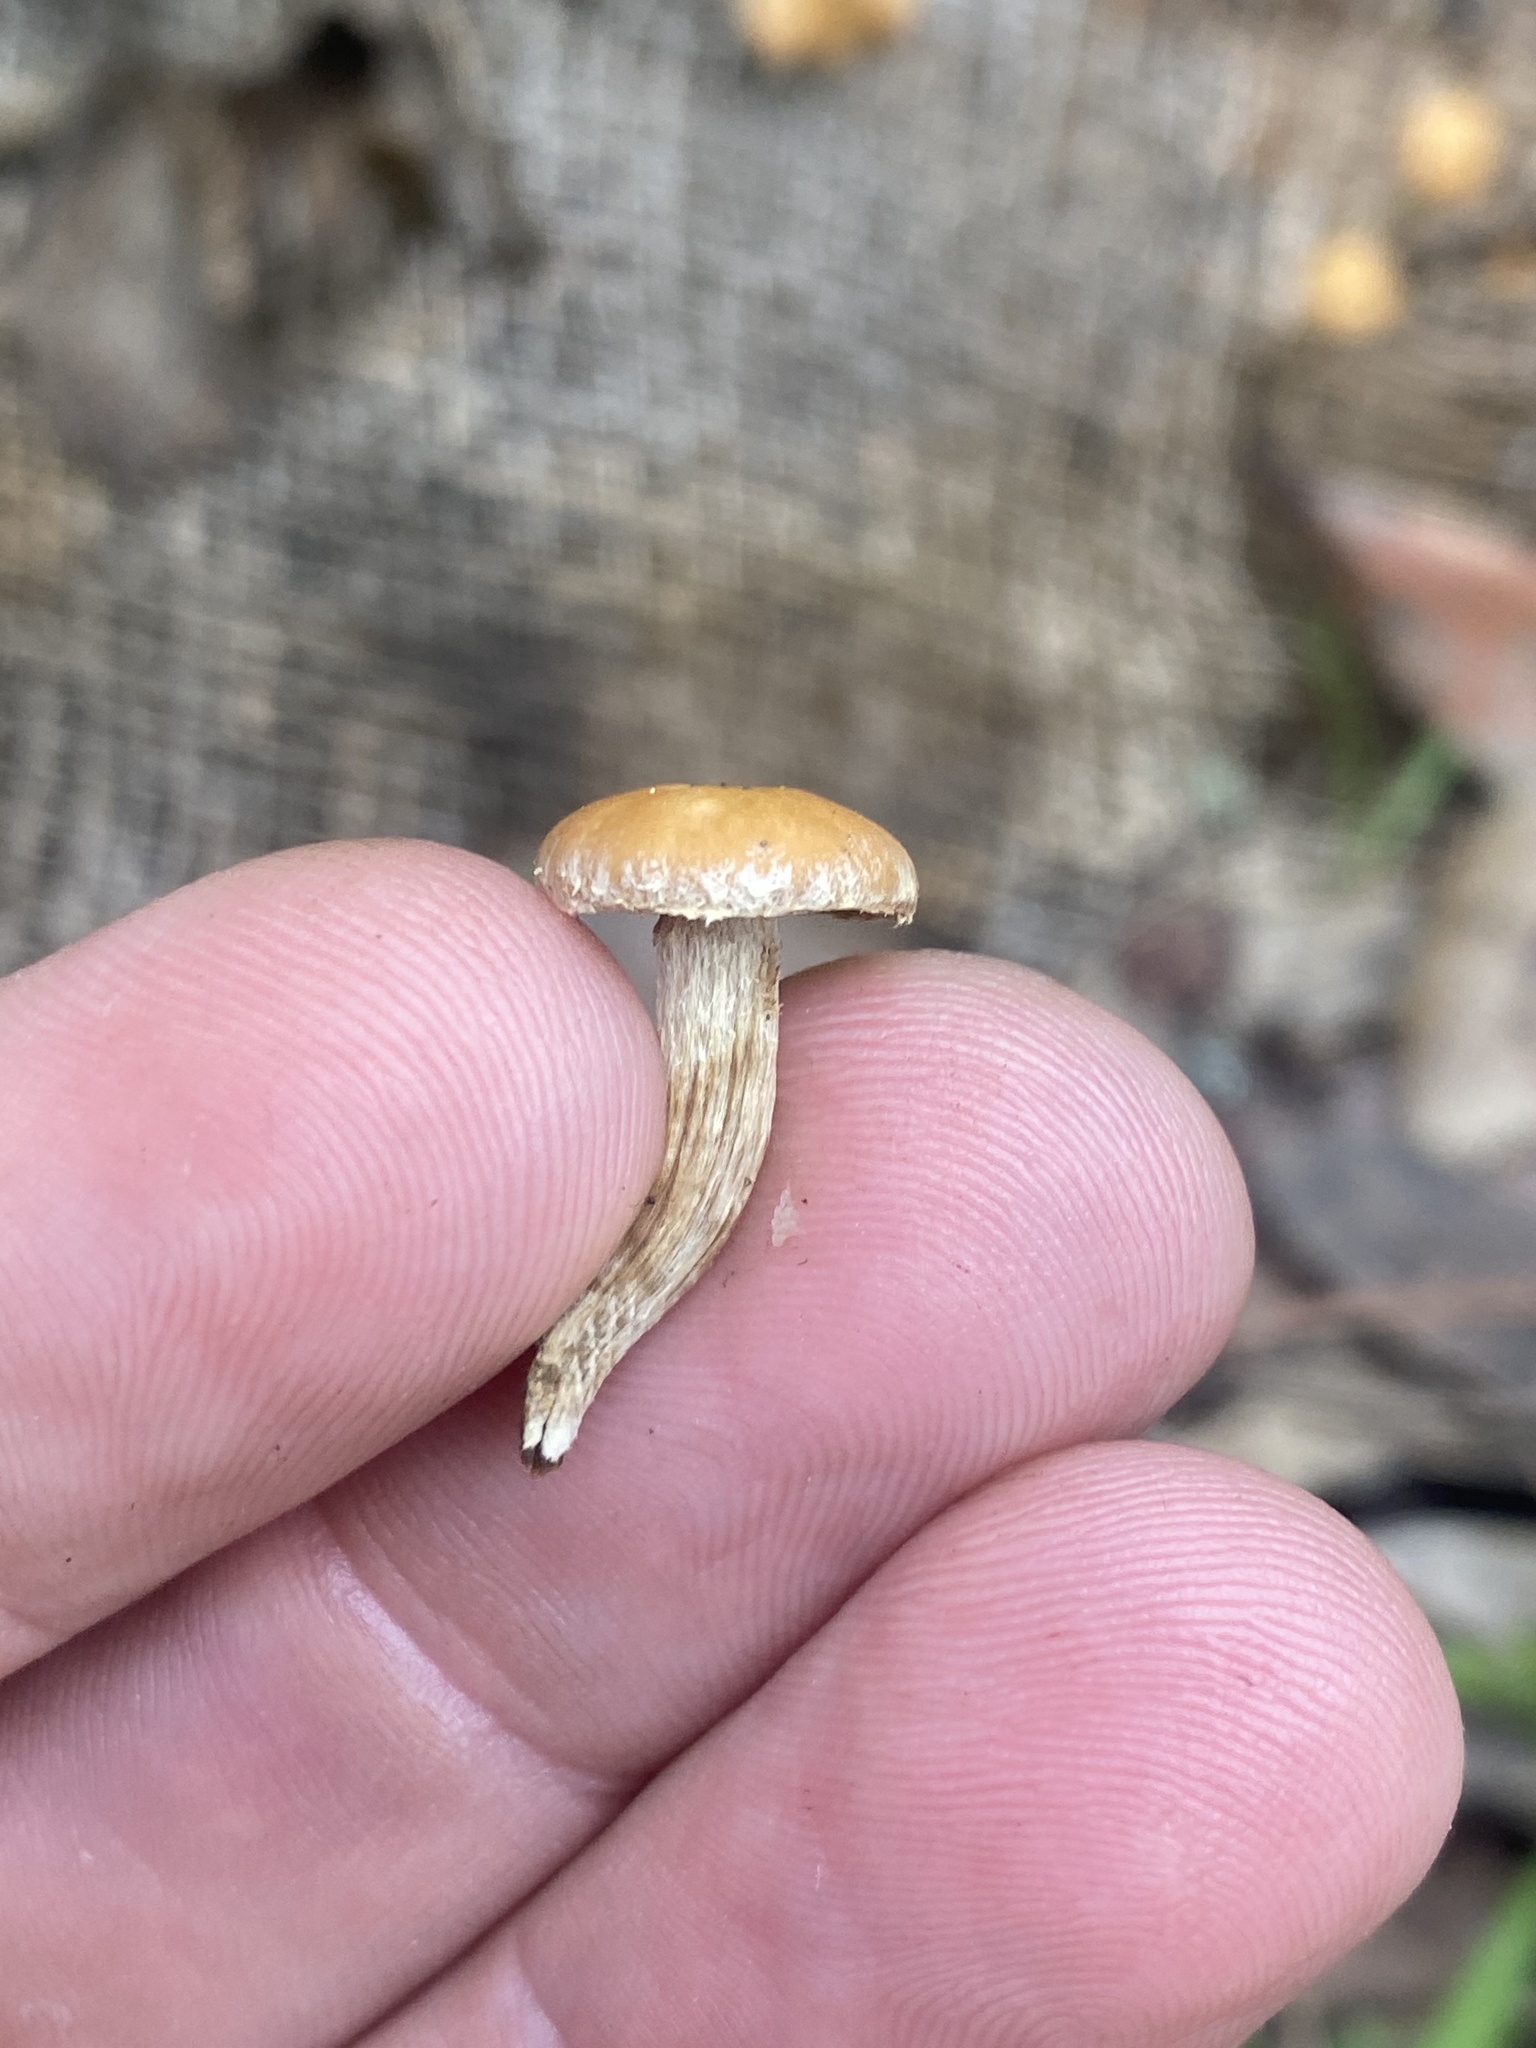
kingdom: Fungi
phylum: Basidiomycota
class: Agaricomycetes
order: Agaricales
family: Strophariaceae
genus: Agrocybe
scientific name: Agrocybe pediades
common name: Common fieldcap
